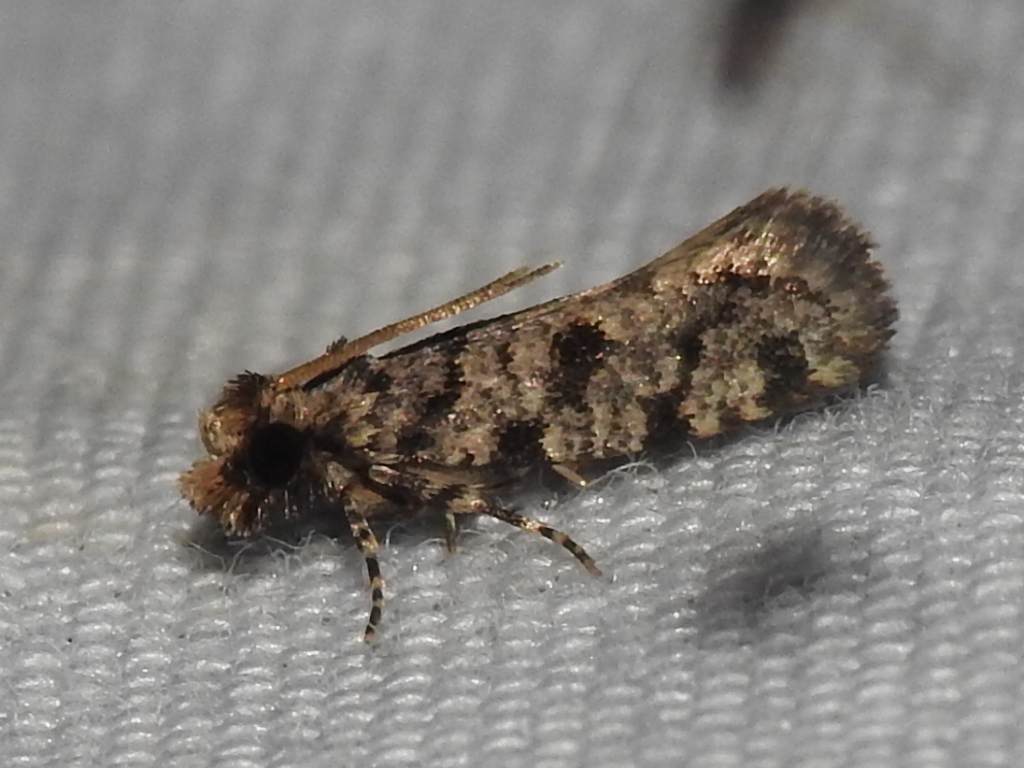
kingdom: Animalia
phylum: Arthropoda
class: Insecta
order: Lepidoptera
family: Tineidae
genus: Amydria
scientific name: Amydria
